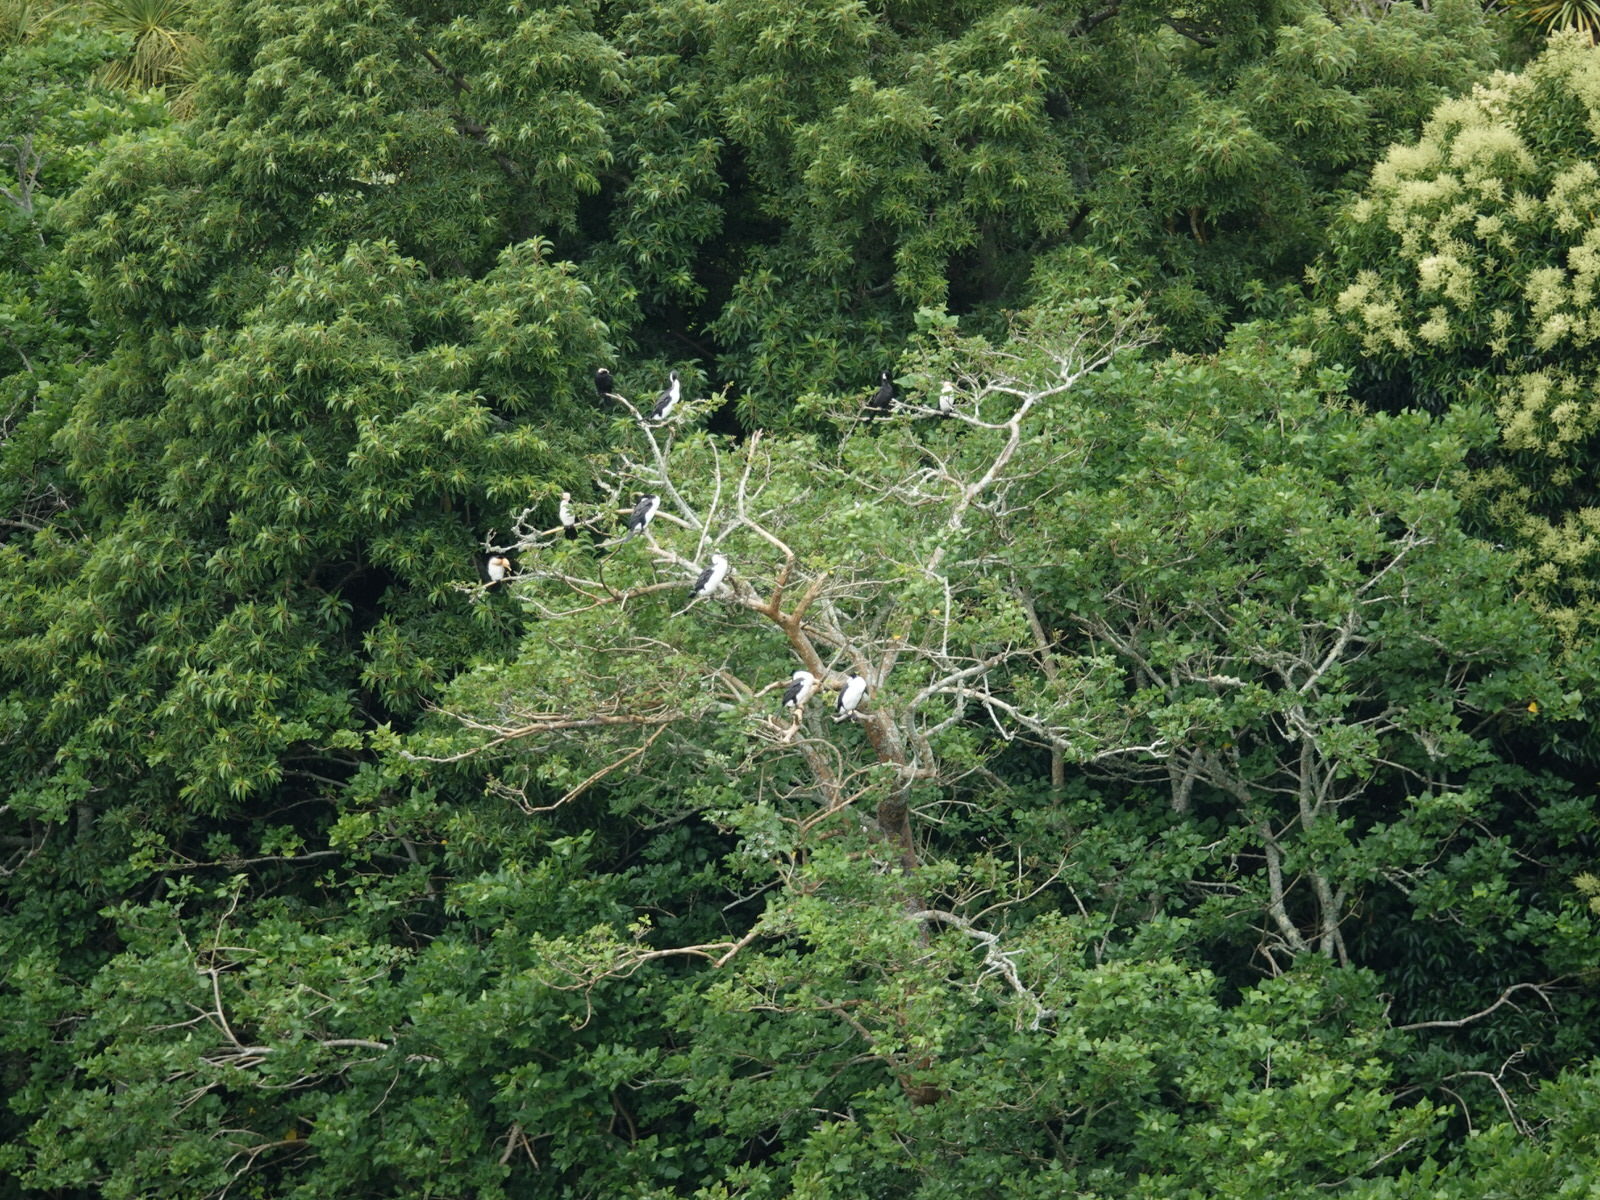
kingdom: Animalia
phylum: Chordata
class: Aves
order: Suliformes
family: Phalacrocoracidae
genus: Phalacrocorax
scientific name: Phalacrocorax varius
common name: Pied cormorant
